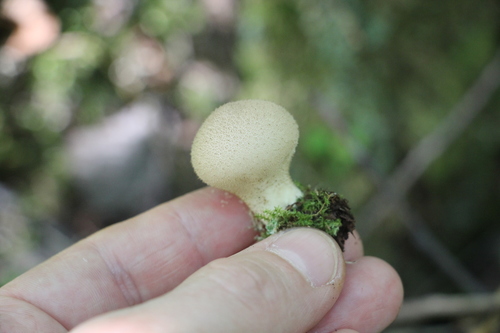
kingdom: Fungi
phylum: Basidiomycota
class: Agaricomycetes
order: Agaricales
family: Lycoperdaceae
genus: Lycoperdon
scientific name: Lycoperdon
